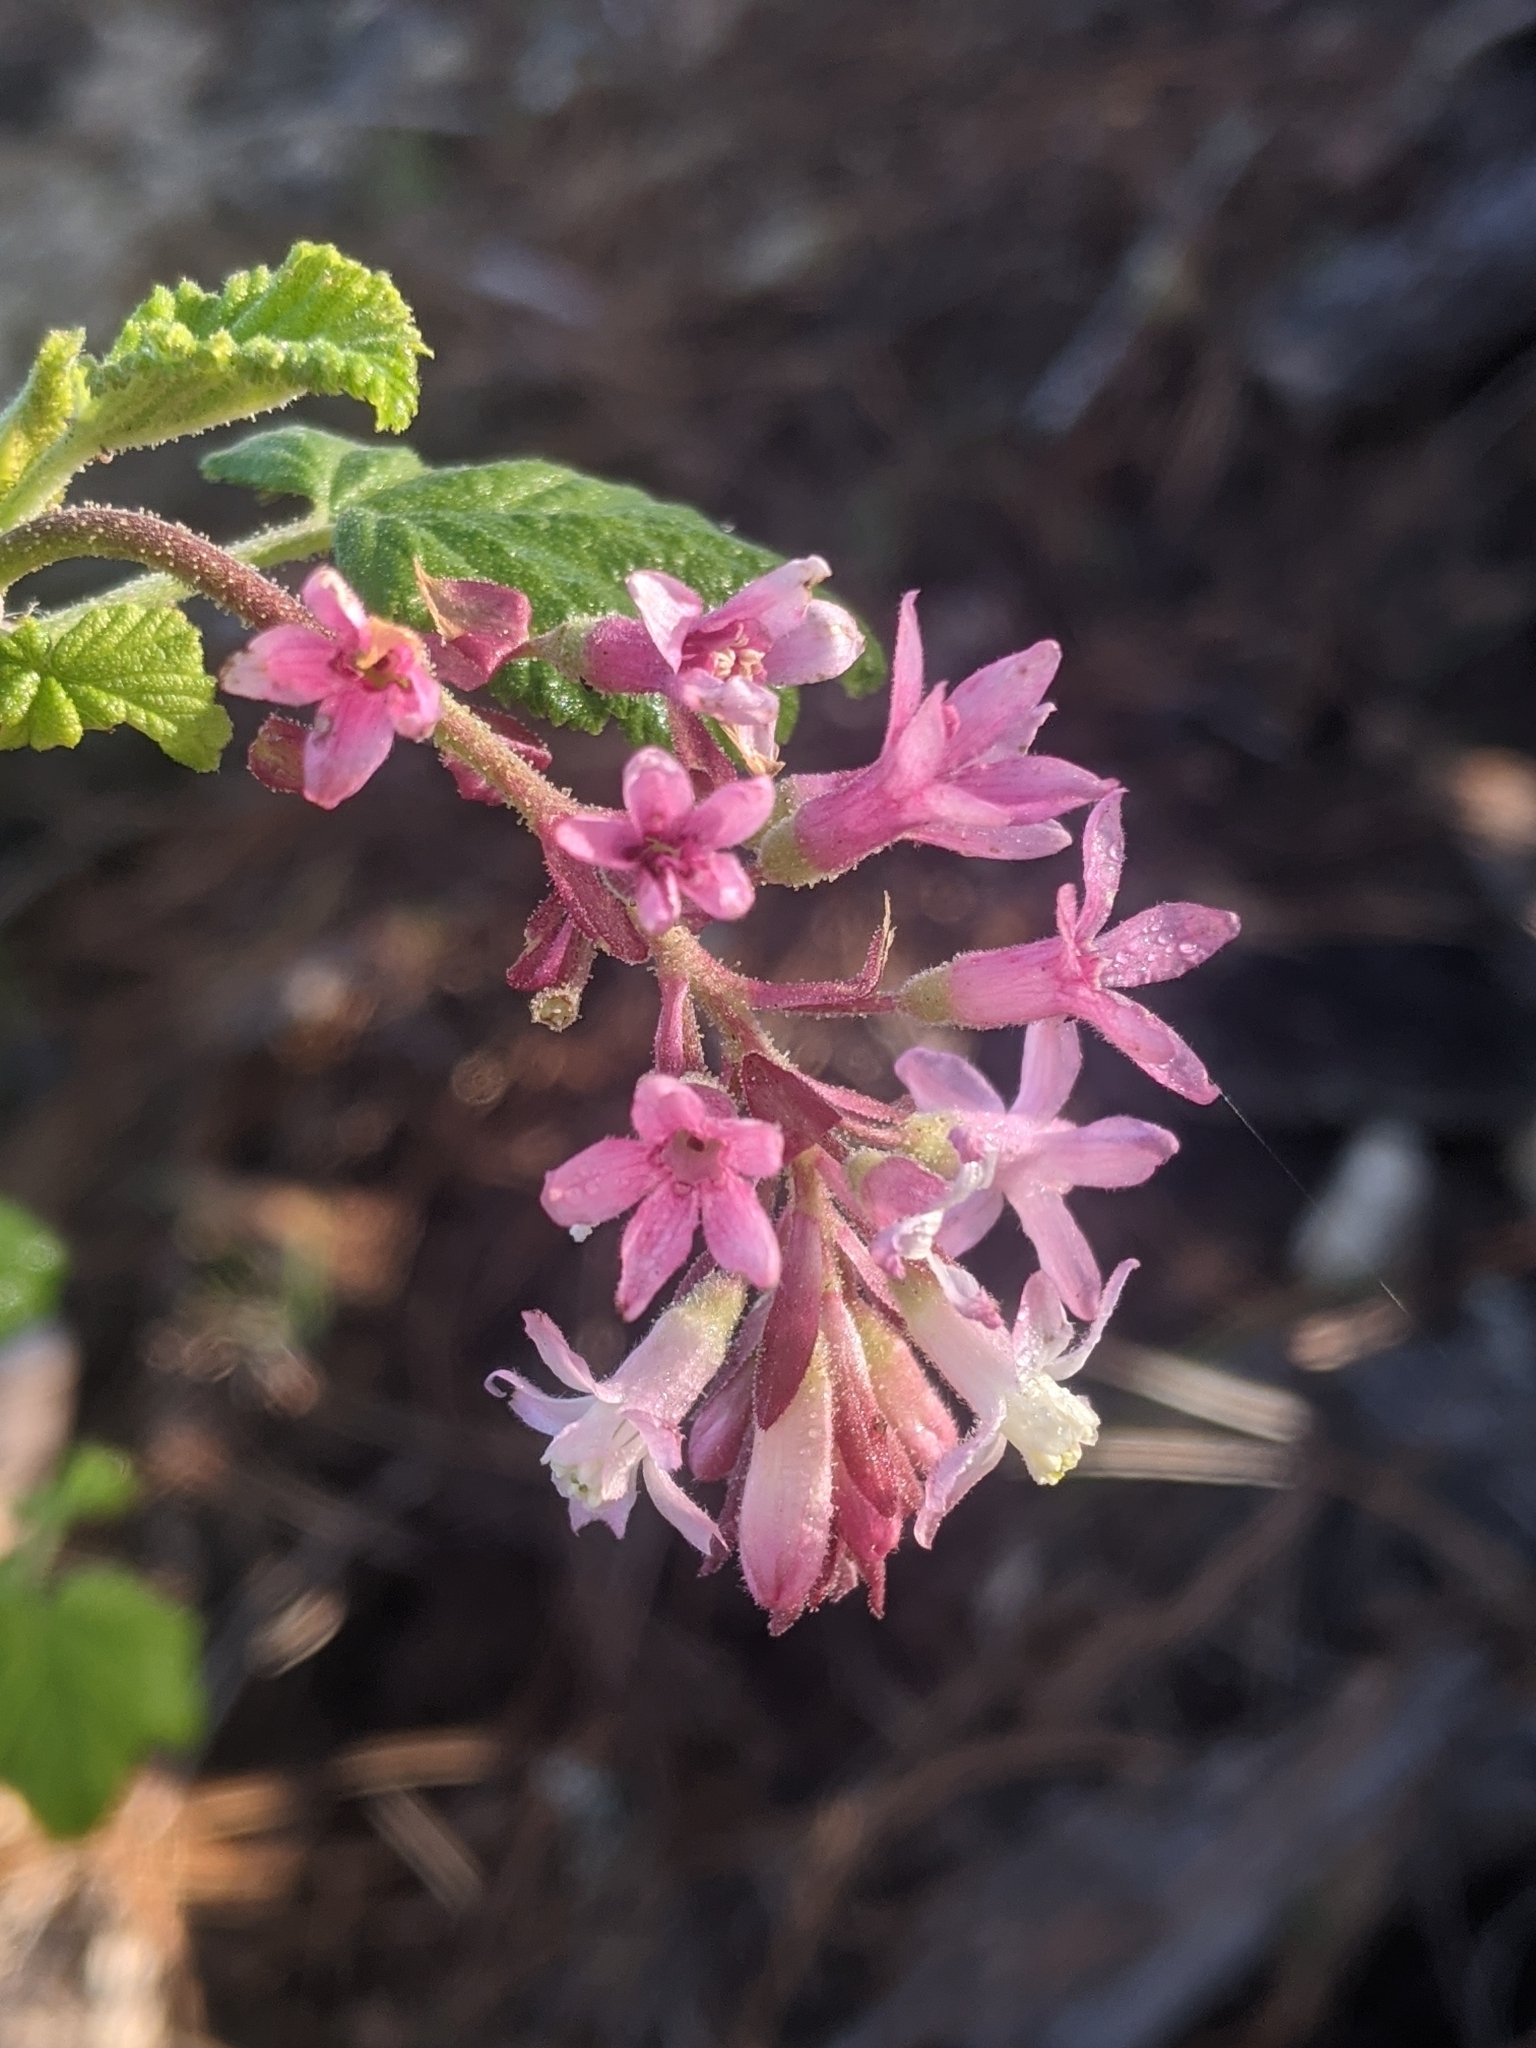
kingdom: Plantae
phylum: Tracheophyta
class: Magnoliopsida
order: Saxifragales
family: Grossulariaceae
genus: Ribes
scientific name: Ribes sanguineum
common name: Flowering currant
